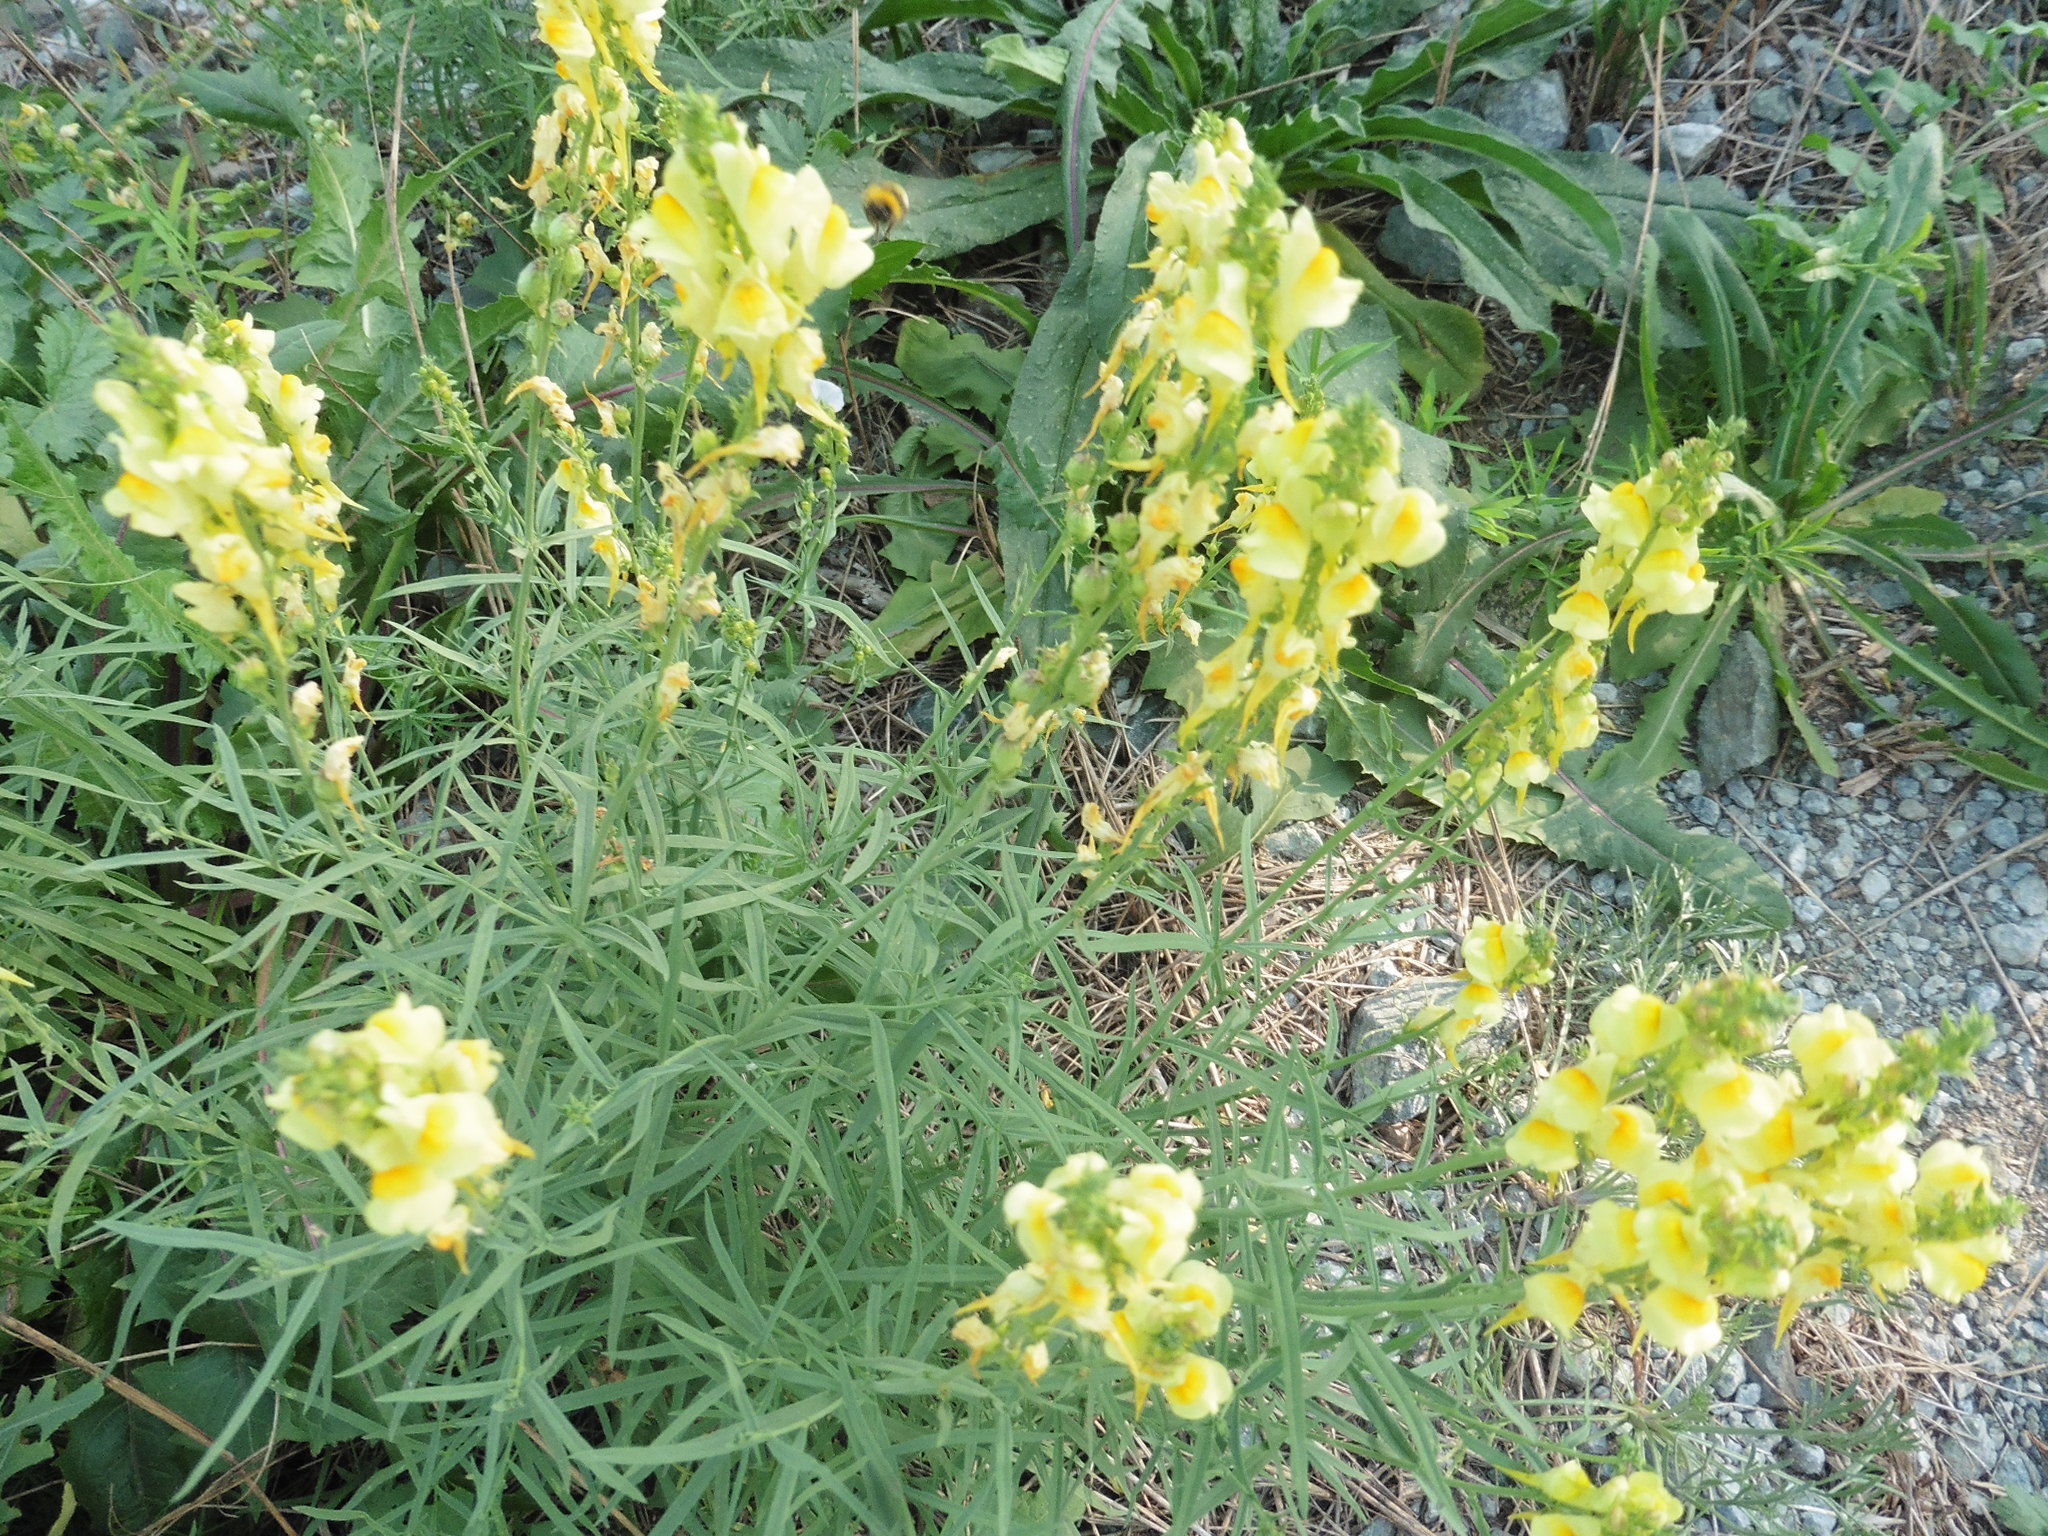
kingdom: Plantae
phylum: Tracheophyta
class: Magnoliopsida
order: Lamiales
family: Plantaginaceae
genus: Linaria
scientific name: Linaria vulgaris
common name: Butter and eggs
